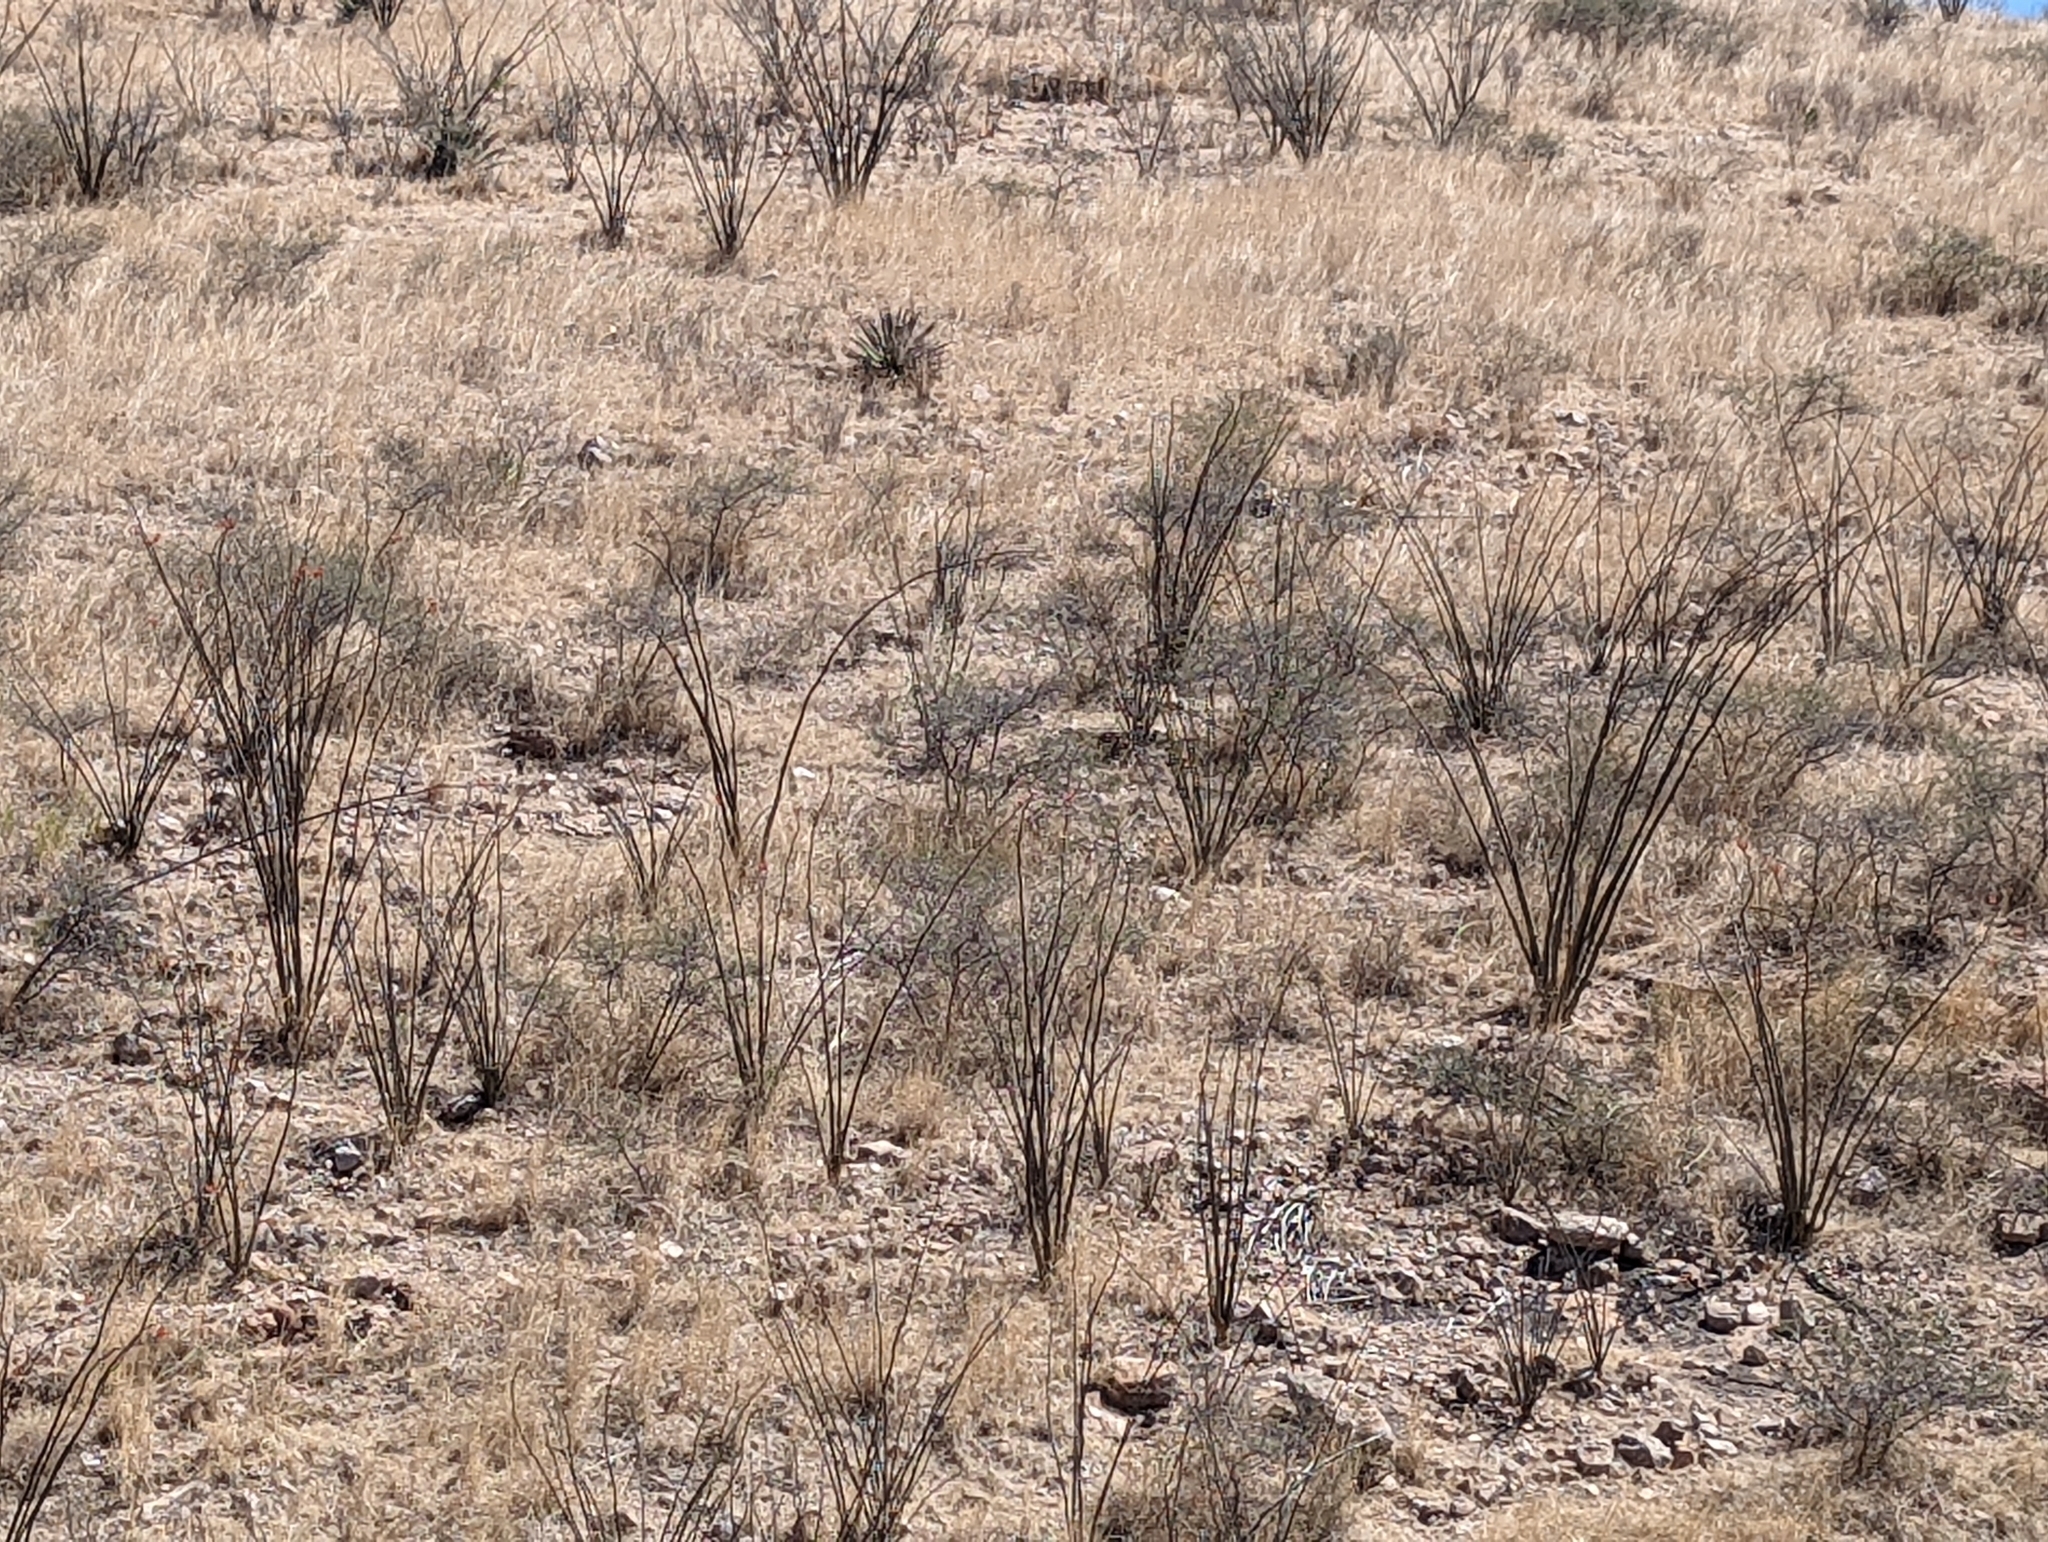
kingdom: Plantae
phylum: Tracheophyta
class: Magnoliopsida
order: Ericales
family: Fouquieriaceae
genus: Fouquieria
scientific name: Fouquieria splendens
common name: Vine-cactus
